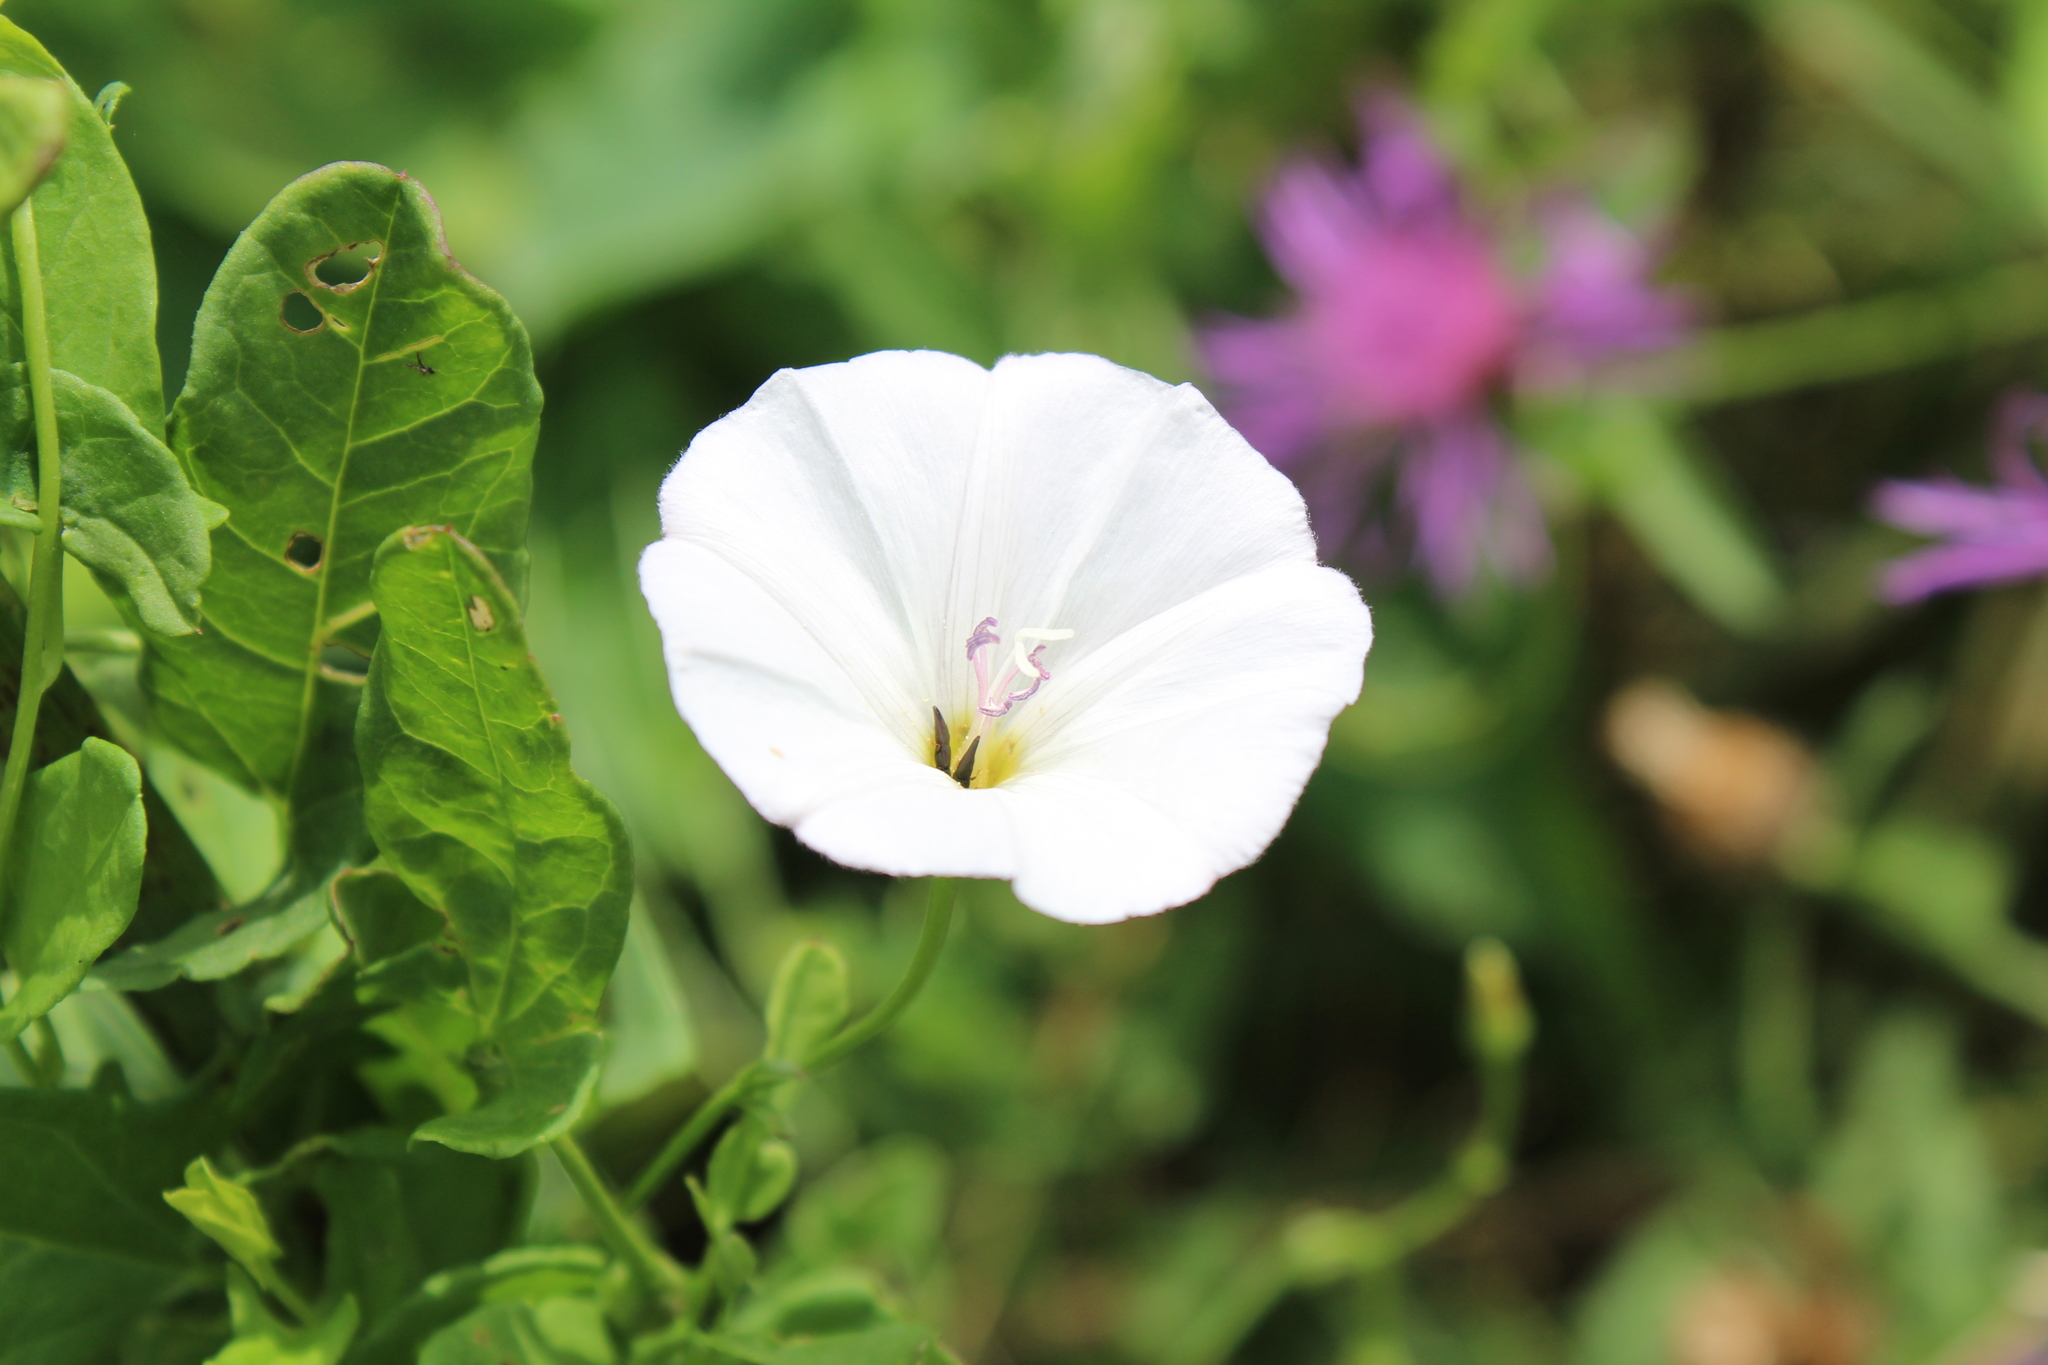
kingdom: Plantae
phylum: Tracheophyta
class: Magnoliopsida
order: Solanales
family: Convolvulaceae
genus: Convolvulus
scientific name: Convolvulus arvensis
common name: Field bindweed
